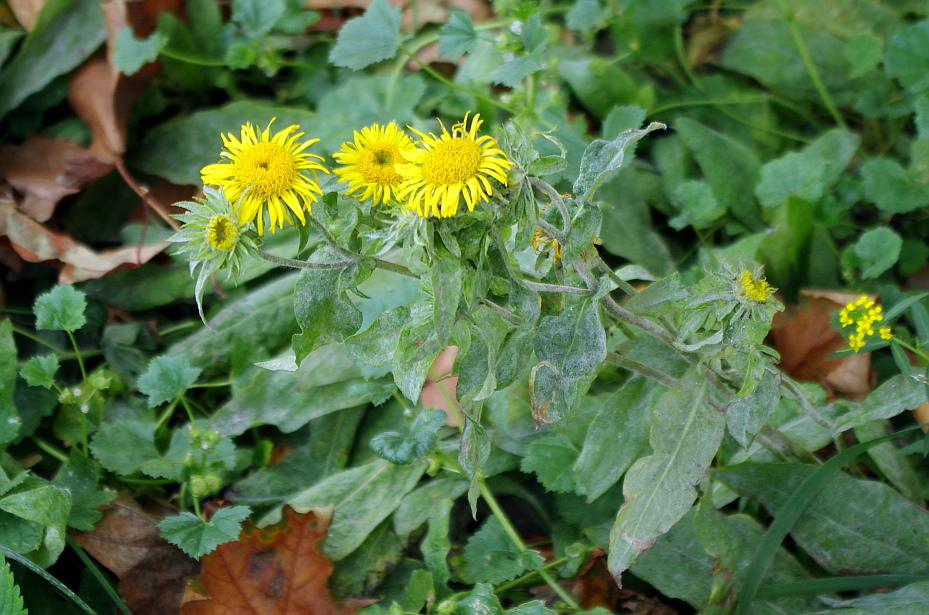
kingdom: Plantae
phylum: Tracheophyta
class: Magnoliopsida
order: Asterales
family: Asteraceae
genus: Pentanema
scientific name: Pentanema britannicum
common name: British elecampane
